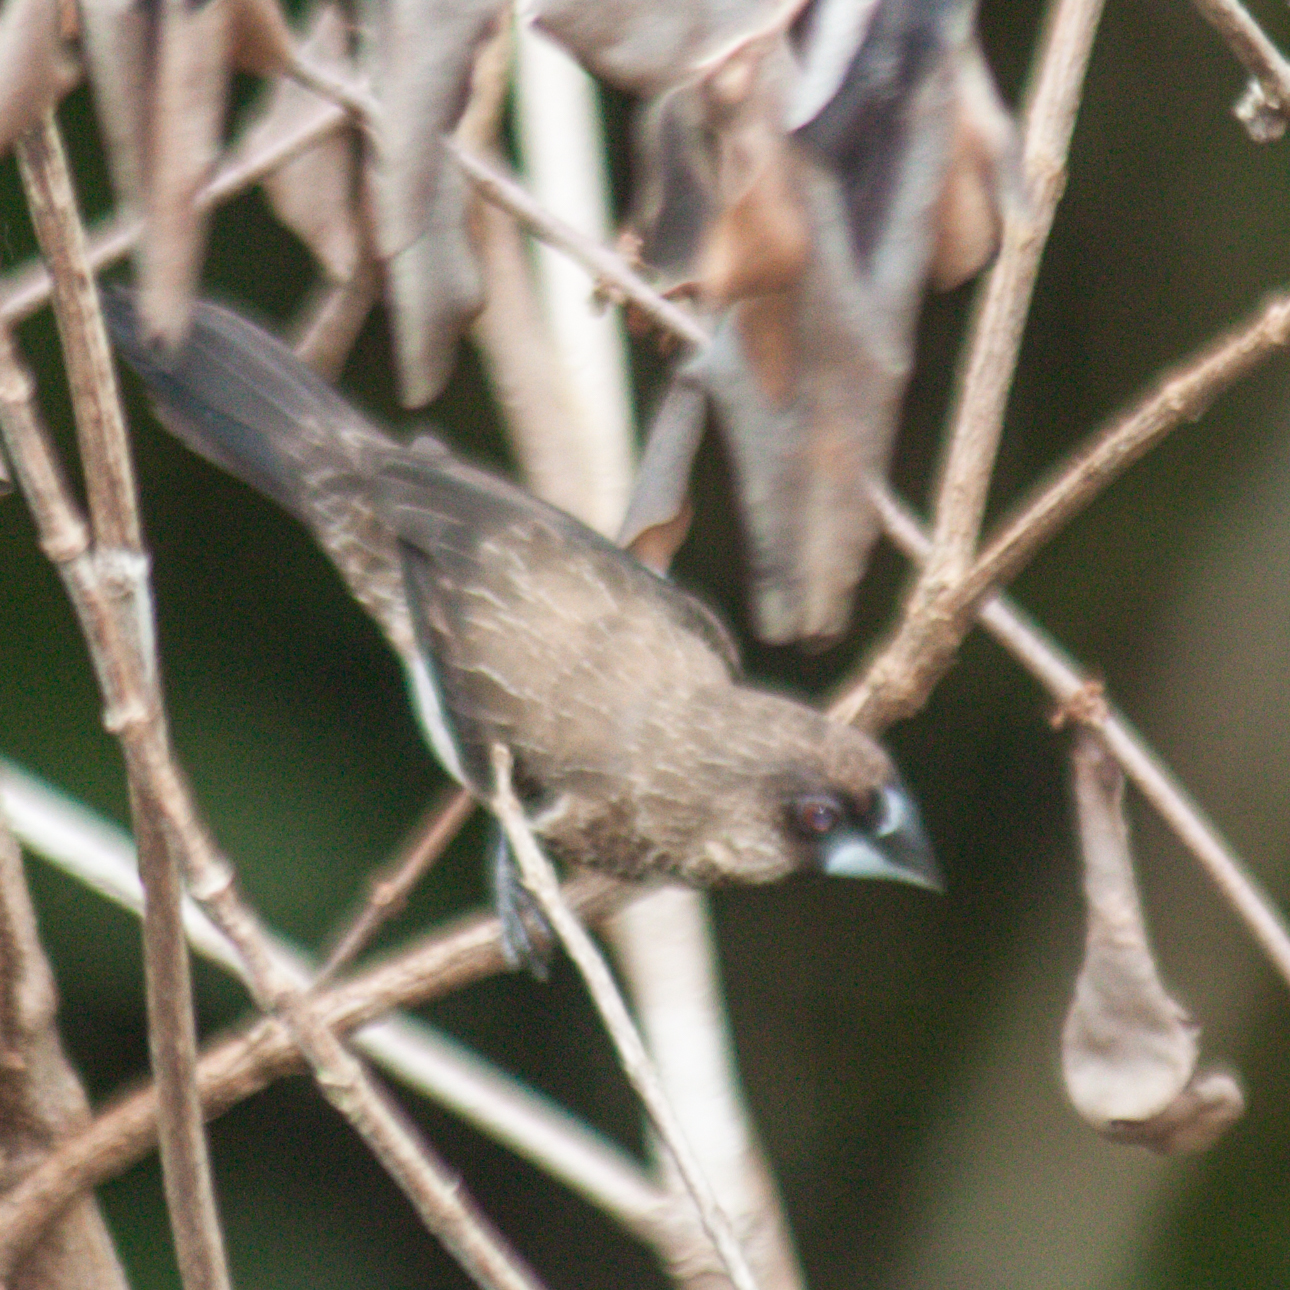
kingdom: Animalia
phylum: Chordata
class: Aves
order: Passeriformes
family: Estrildidae
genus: Lonchura
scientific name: Lonchura striata
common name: White-rumped munia
